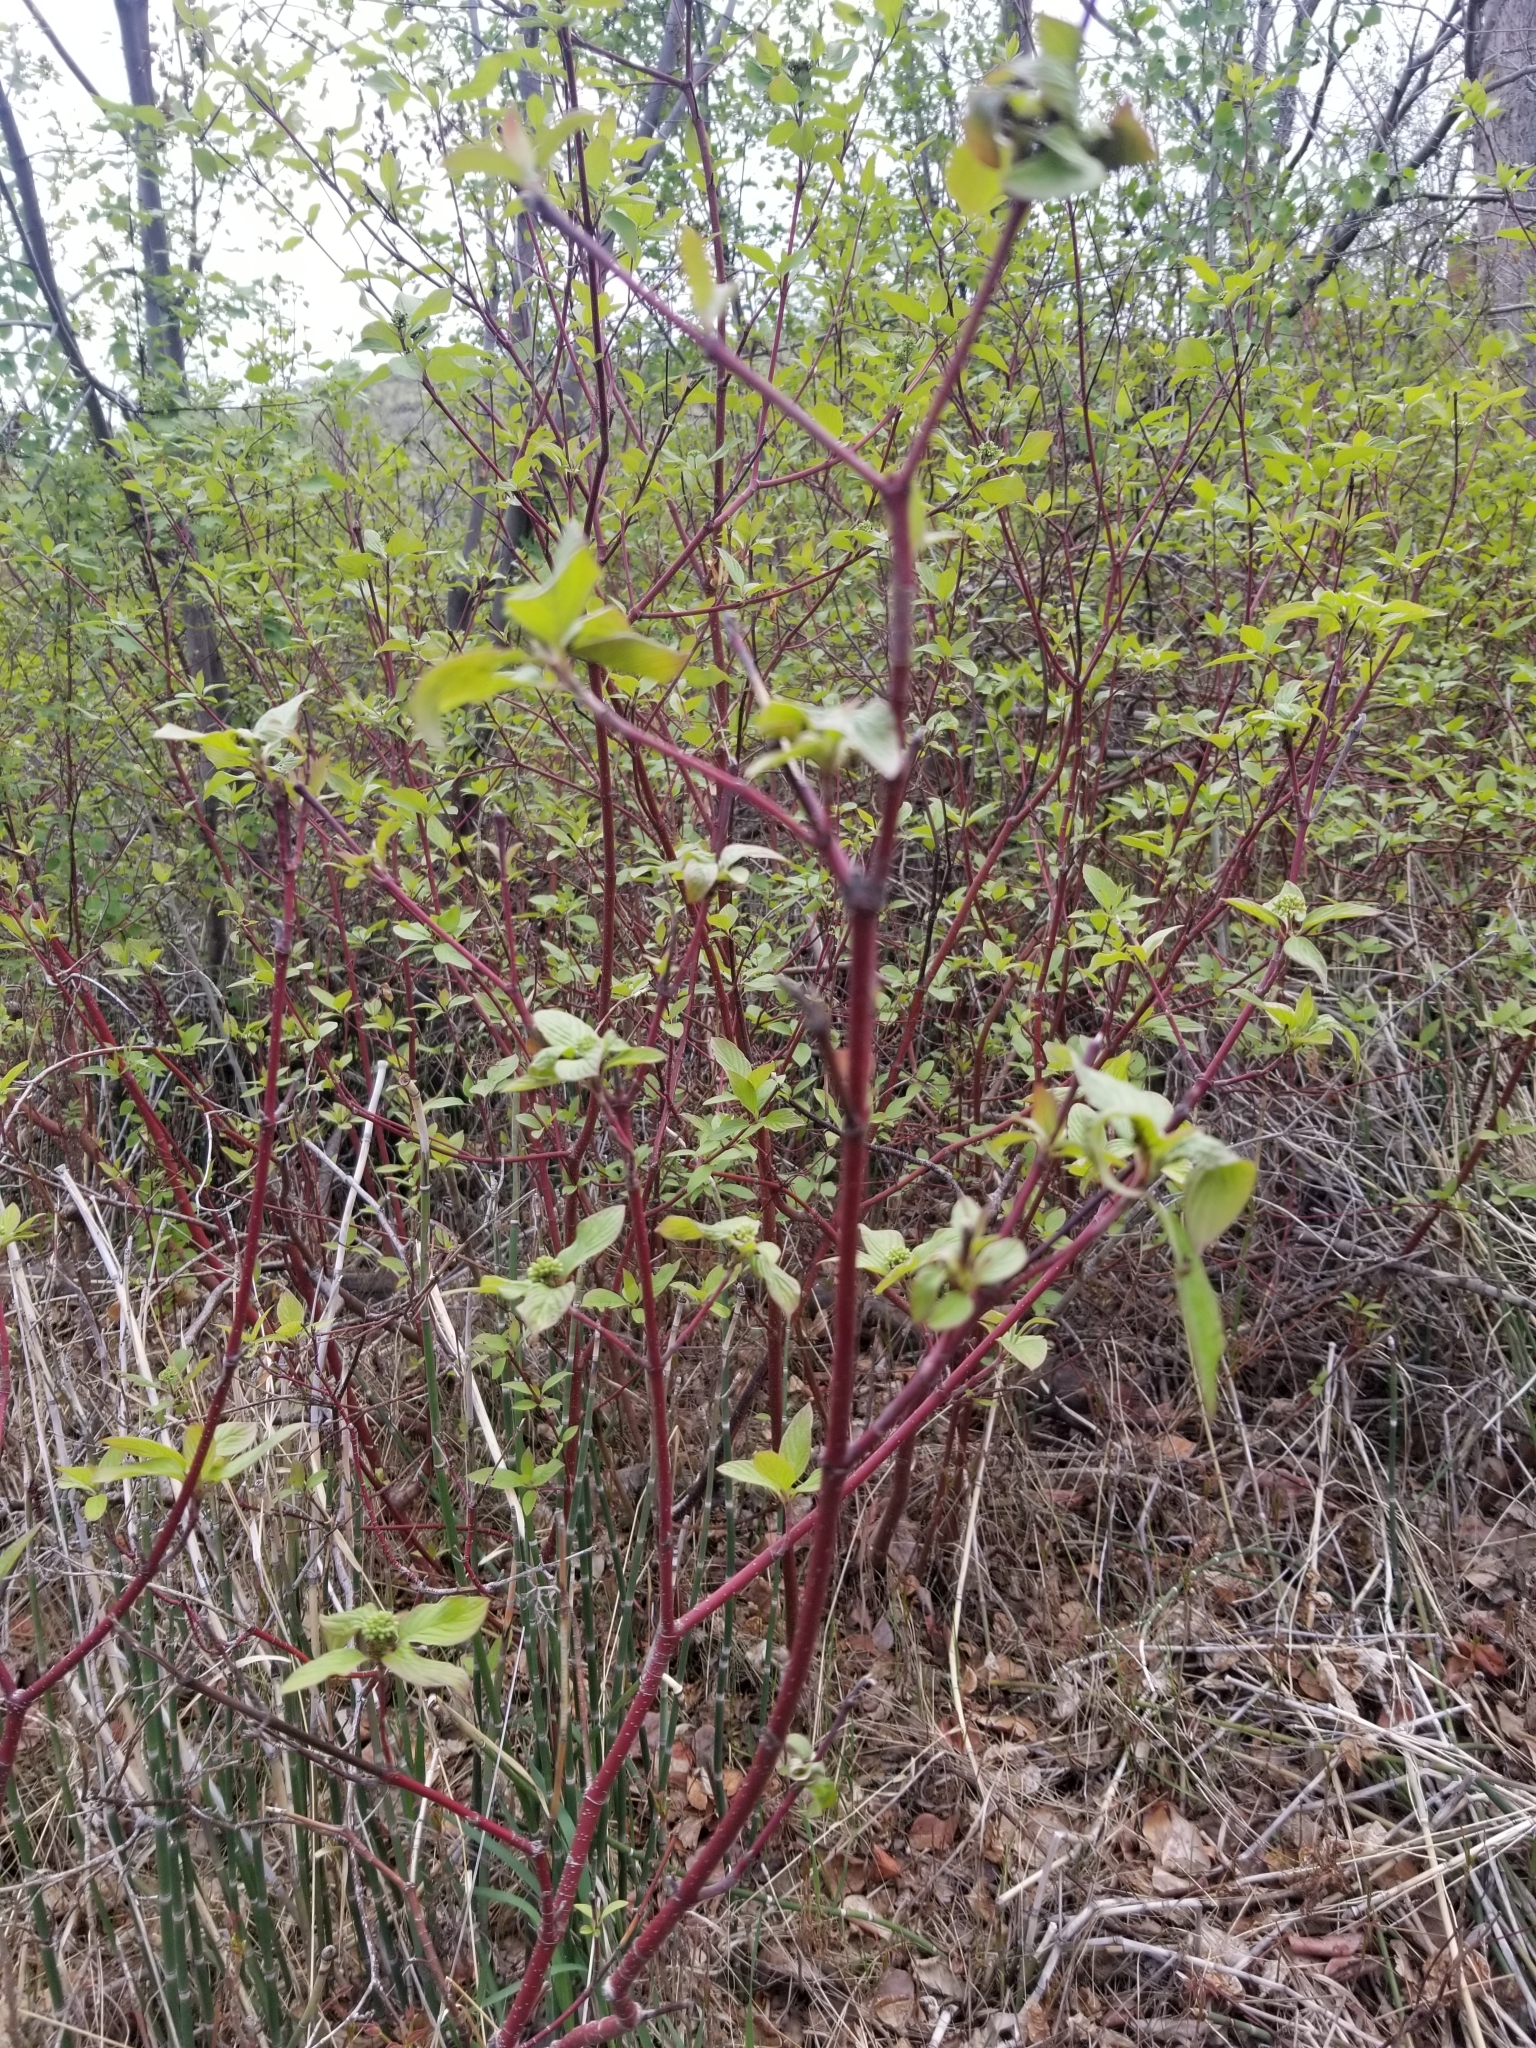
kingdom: Plantae
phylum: Tracheophyta
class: Magnoliopsida
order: Cornales
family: Cornaceae
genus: Cornus
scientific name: Cornus sericea
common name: Red-osier dogwood
